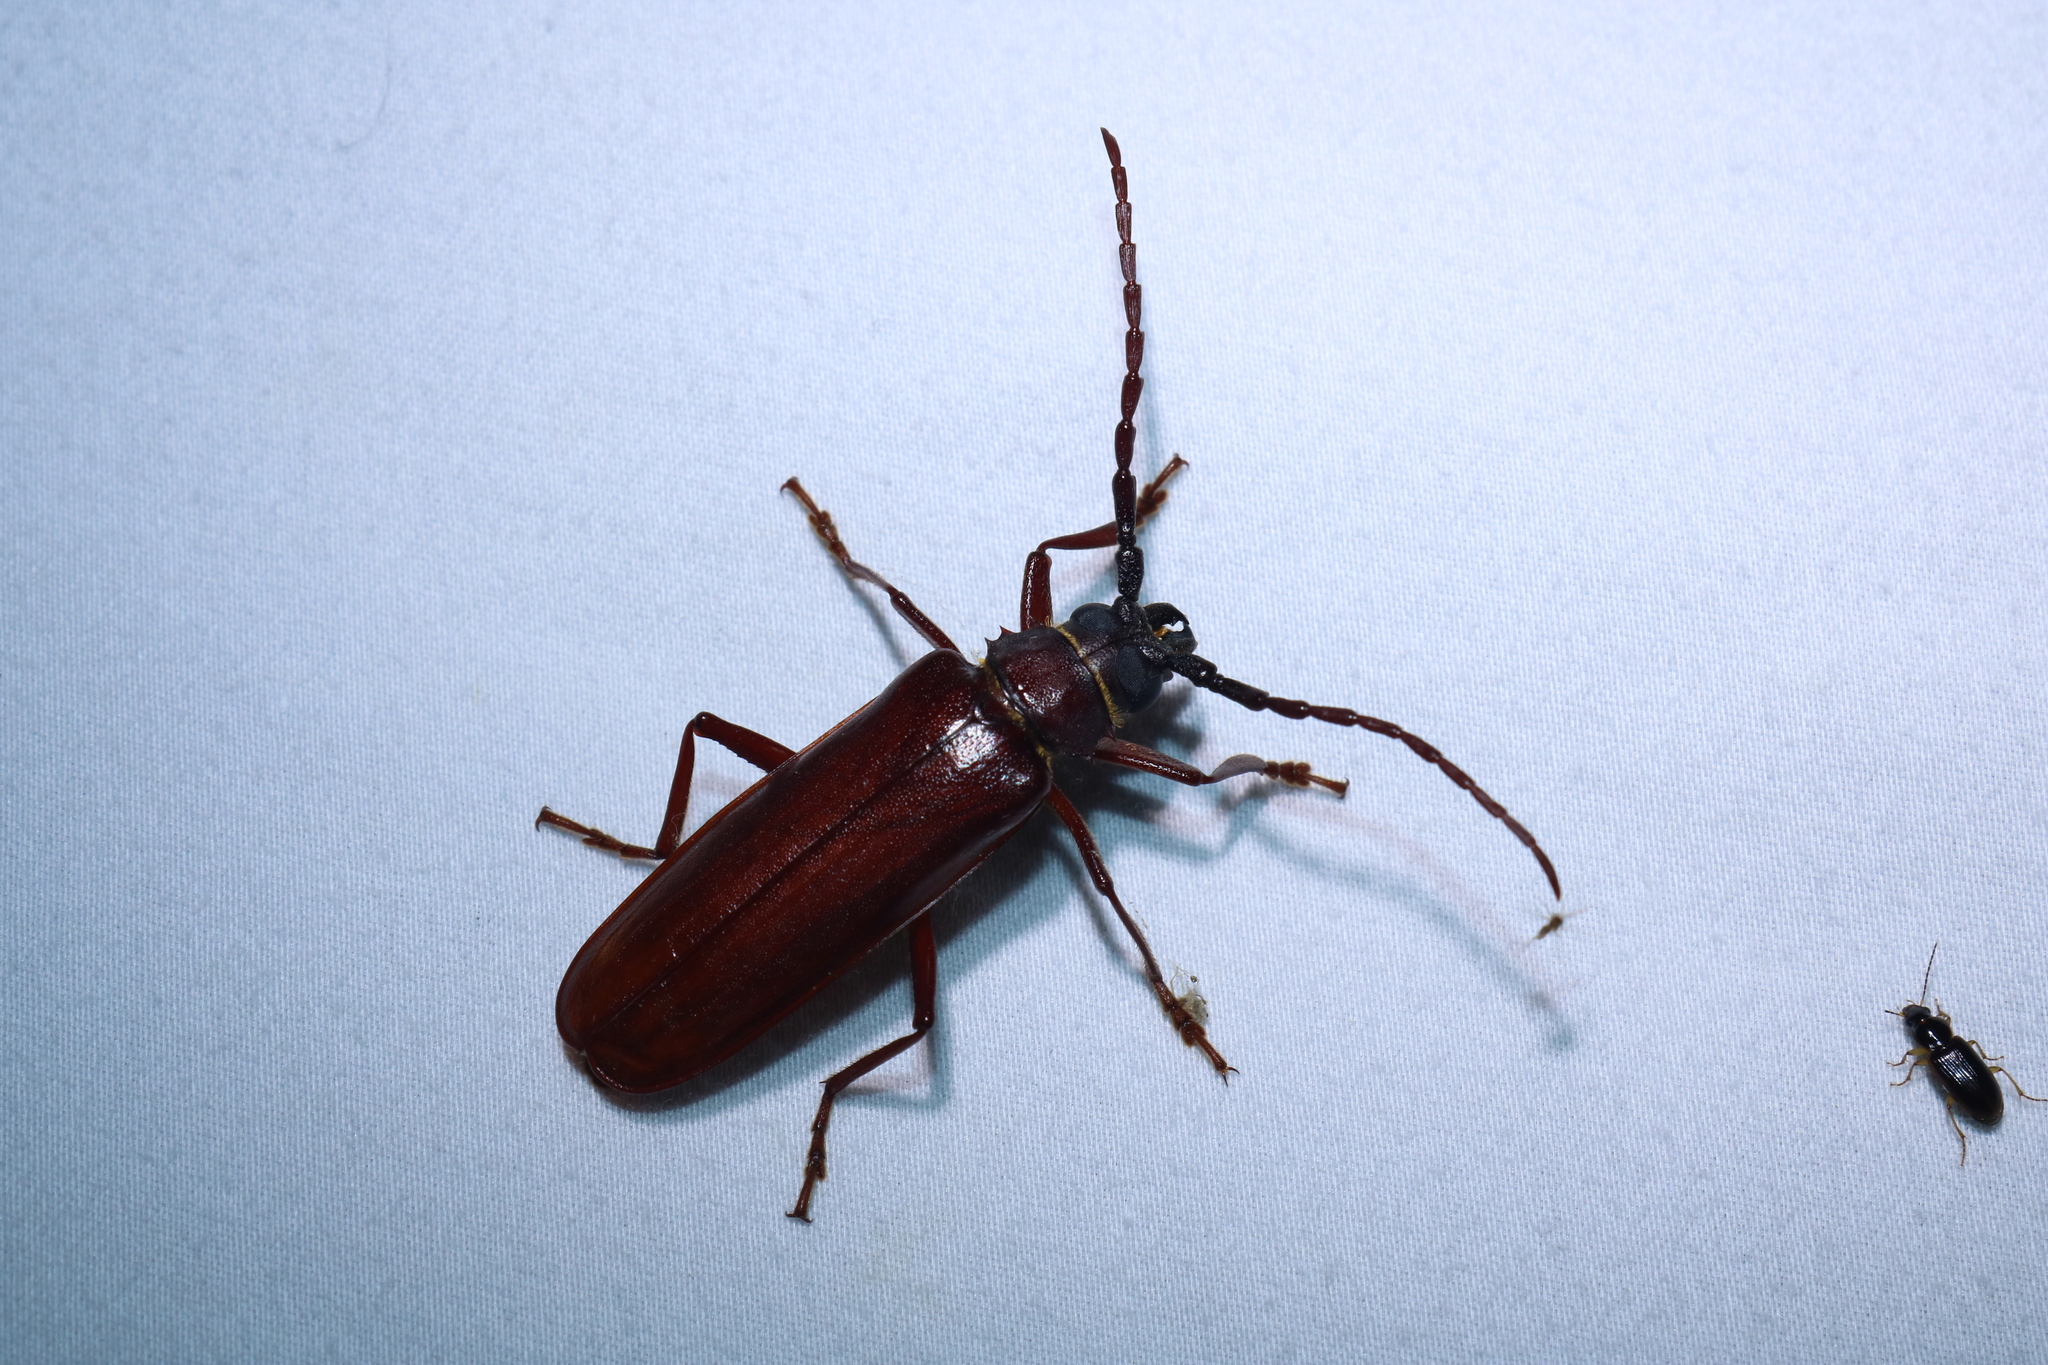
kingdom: Animalia
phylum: Arthropoda
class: Insecta
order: Coleoptera
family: Cerambycidae
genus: Orthosoma
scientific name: Orthosoma brunneum
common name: Brown prionid beetle
